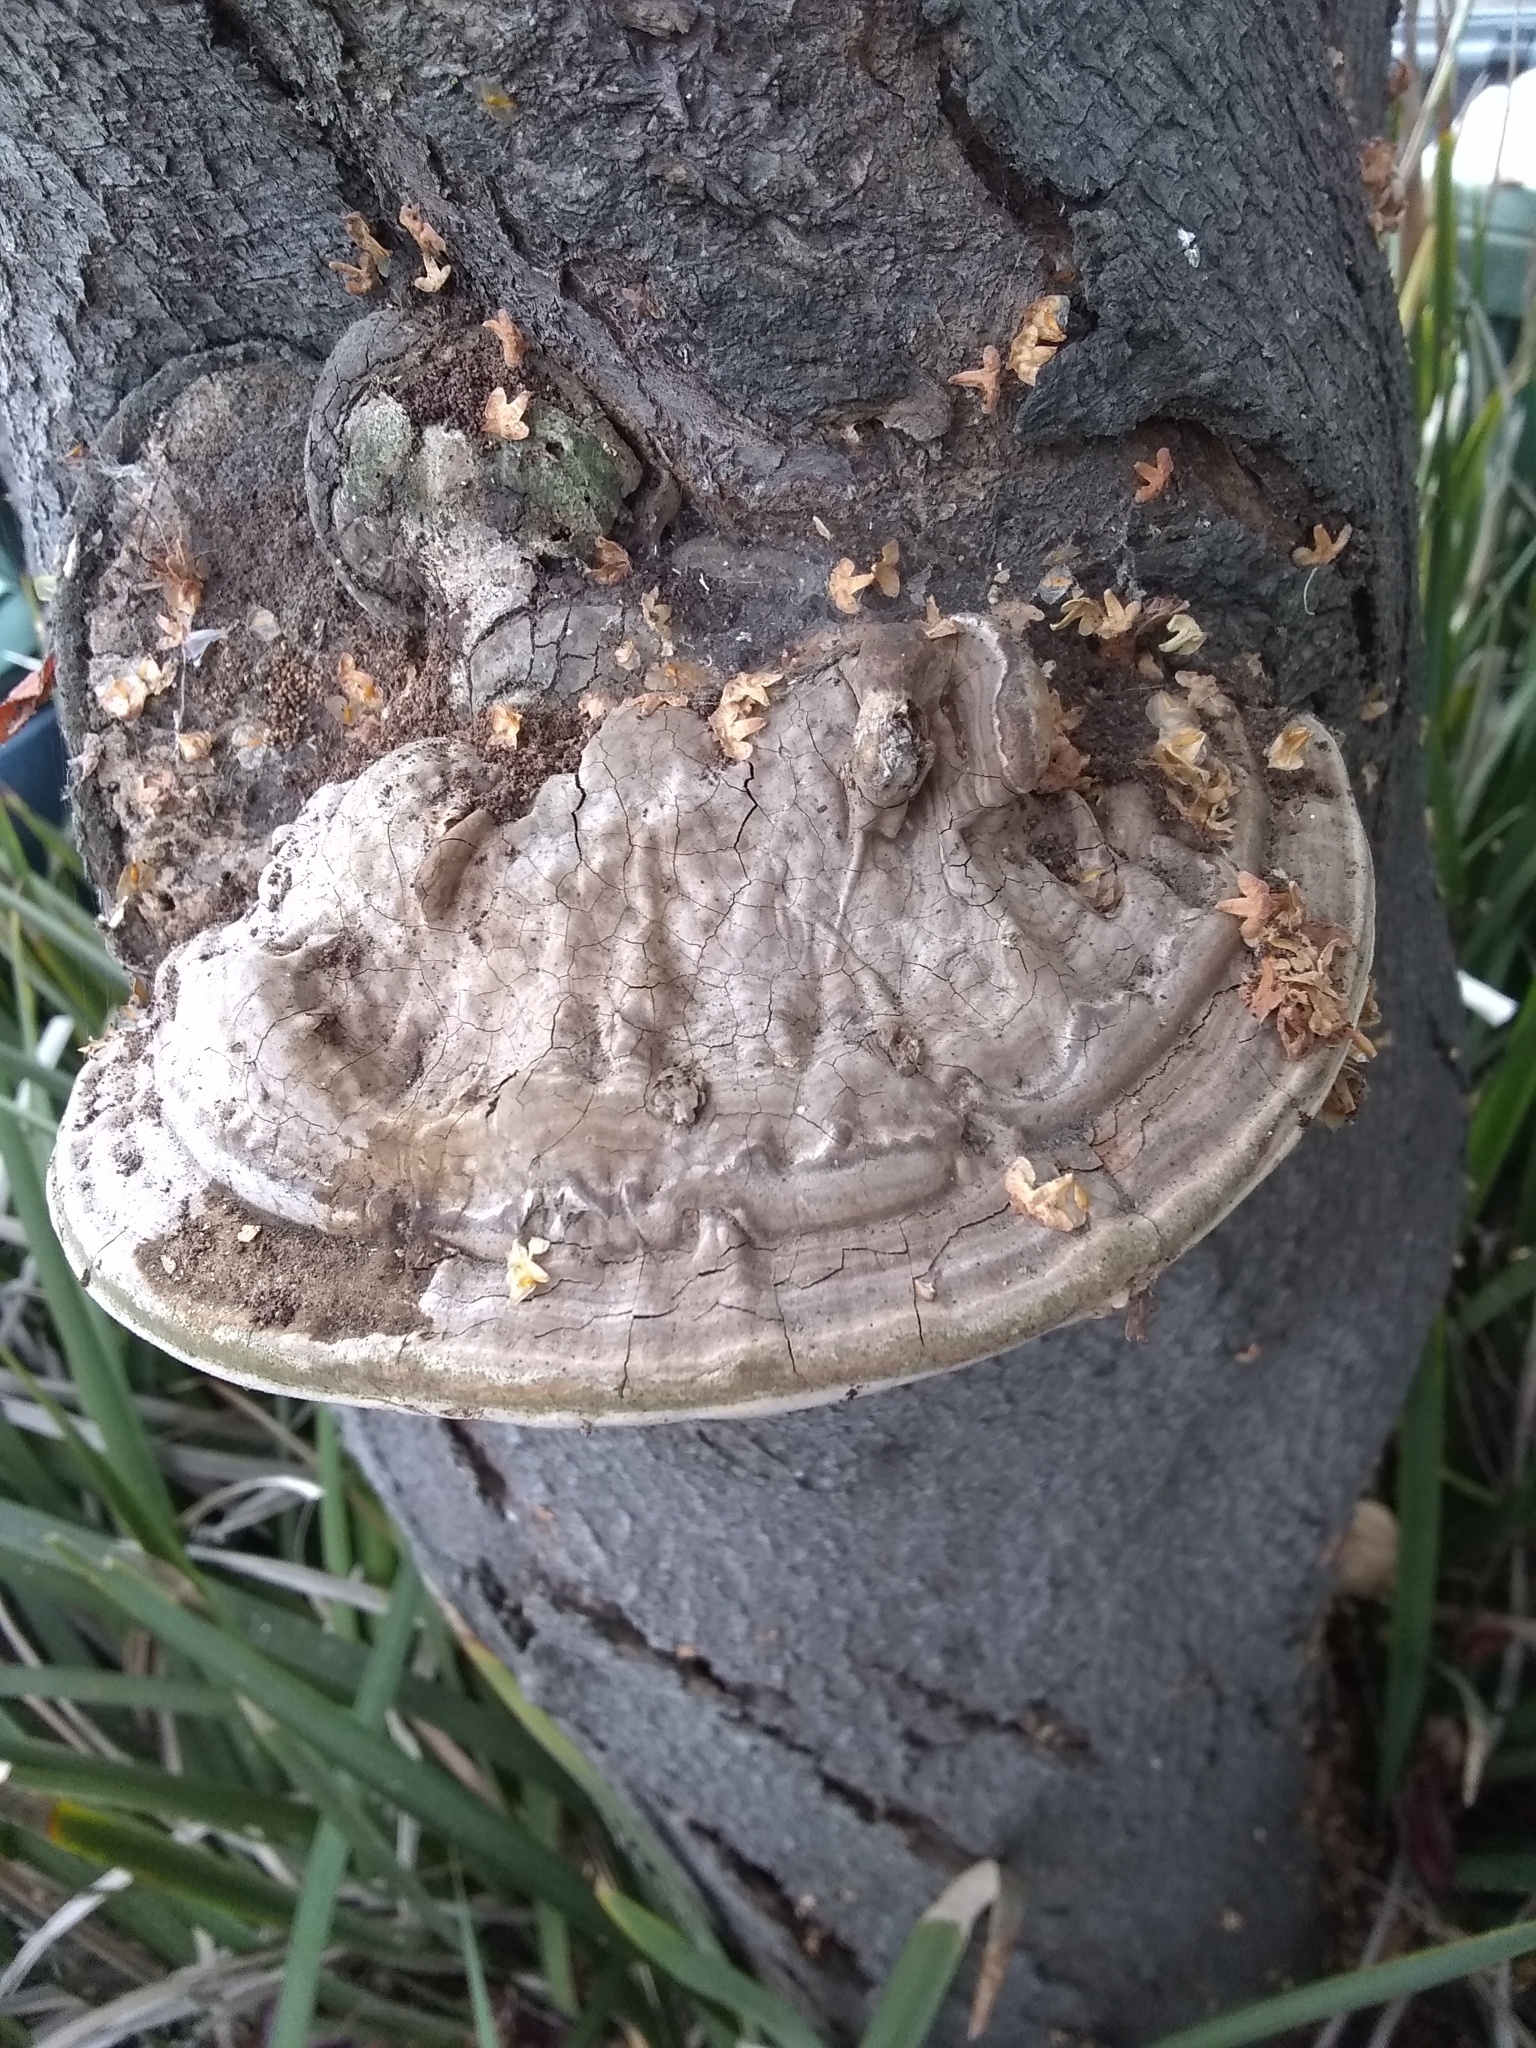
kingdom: Fungi
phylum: Basidiomycota
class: Agaricomycetes
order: Polyporales
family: Polyporaceae
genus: Ganoderma
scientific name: Ganoderma brownii
